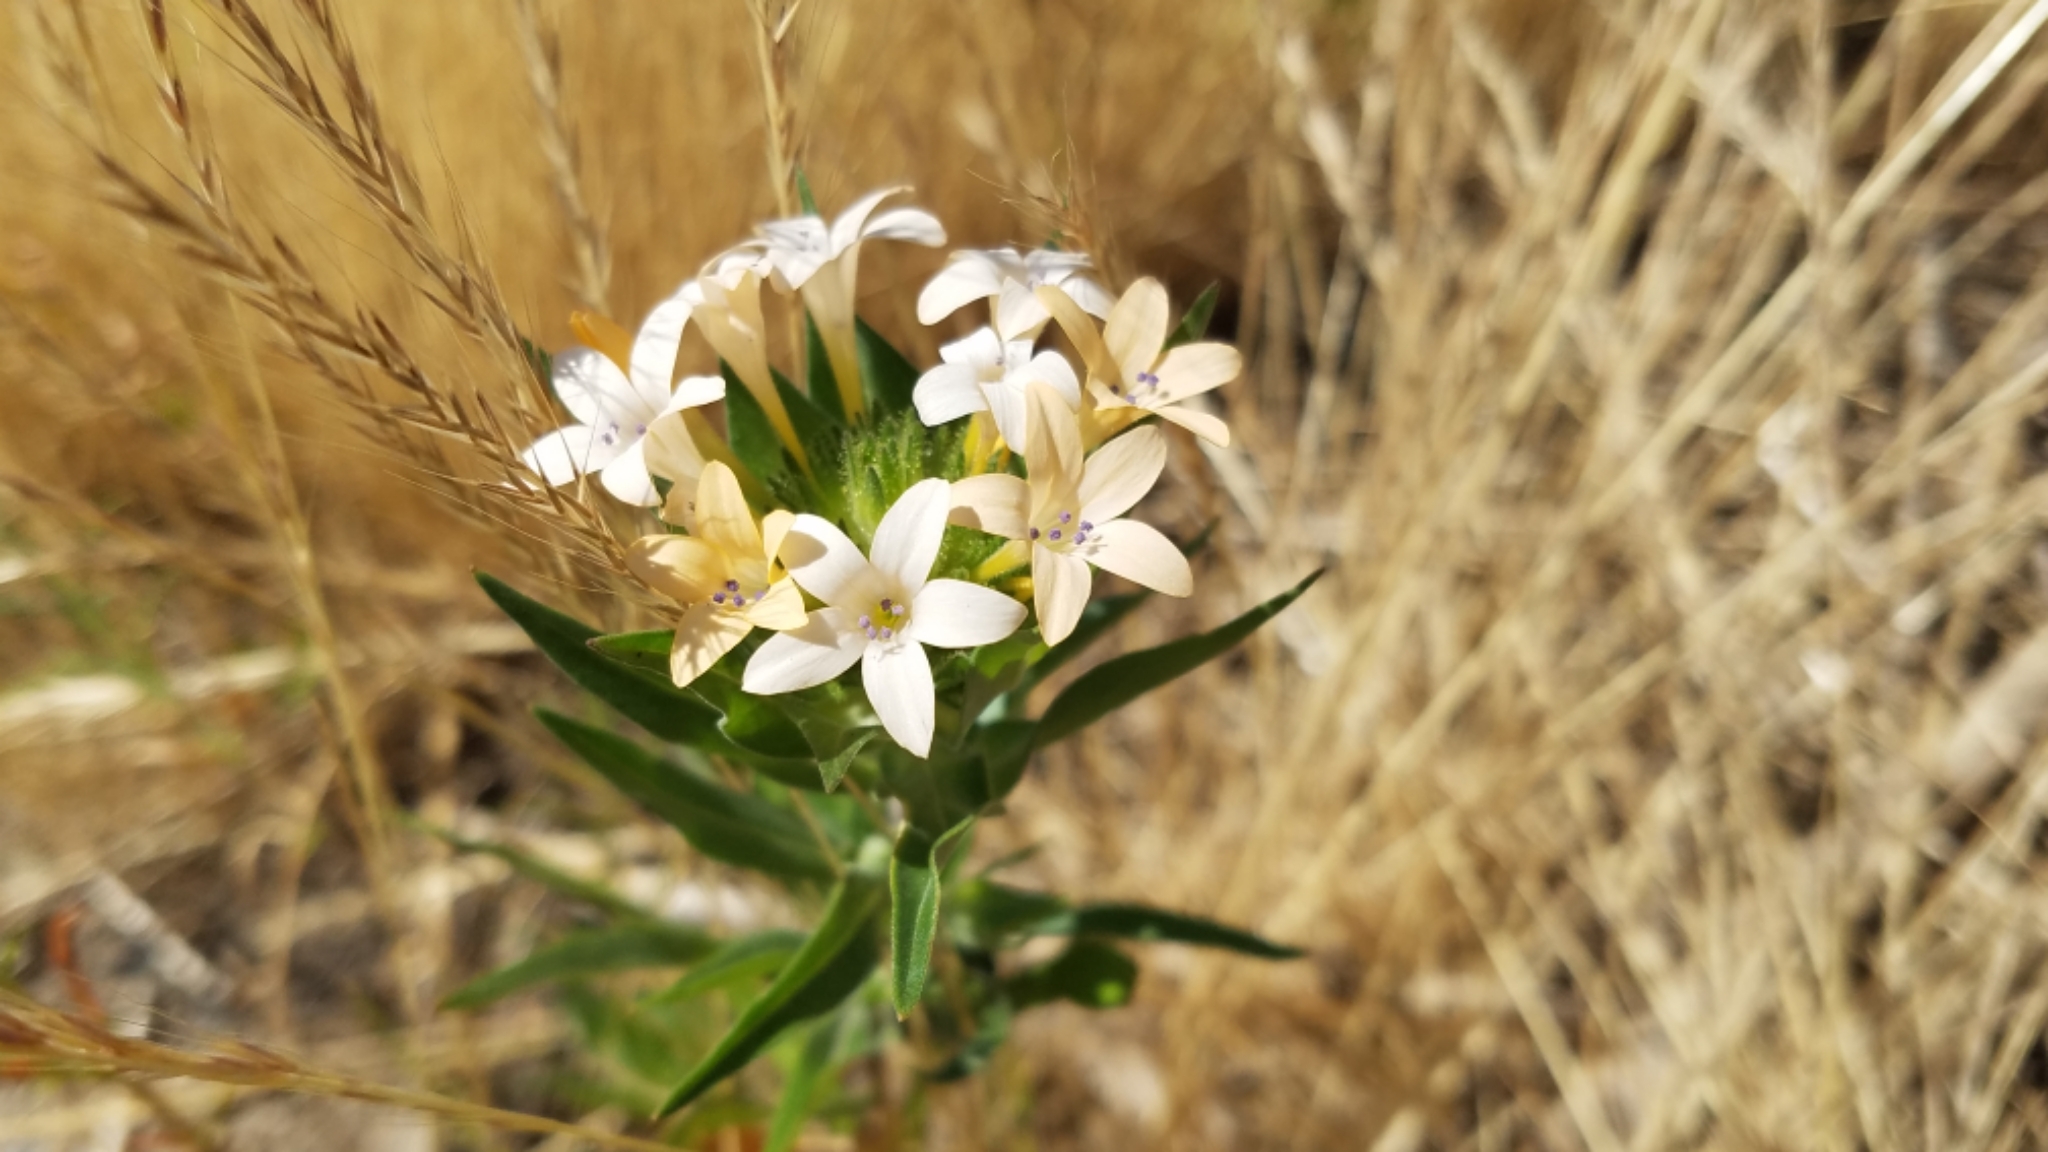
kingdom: Plantae
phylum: Tracheophyta
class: Magnoliopsida
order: Ericales
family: Polemoniaceae
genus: Collomia
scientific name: Collomia grandiflora
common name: California strawflower
